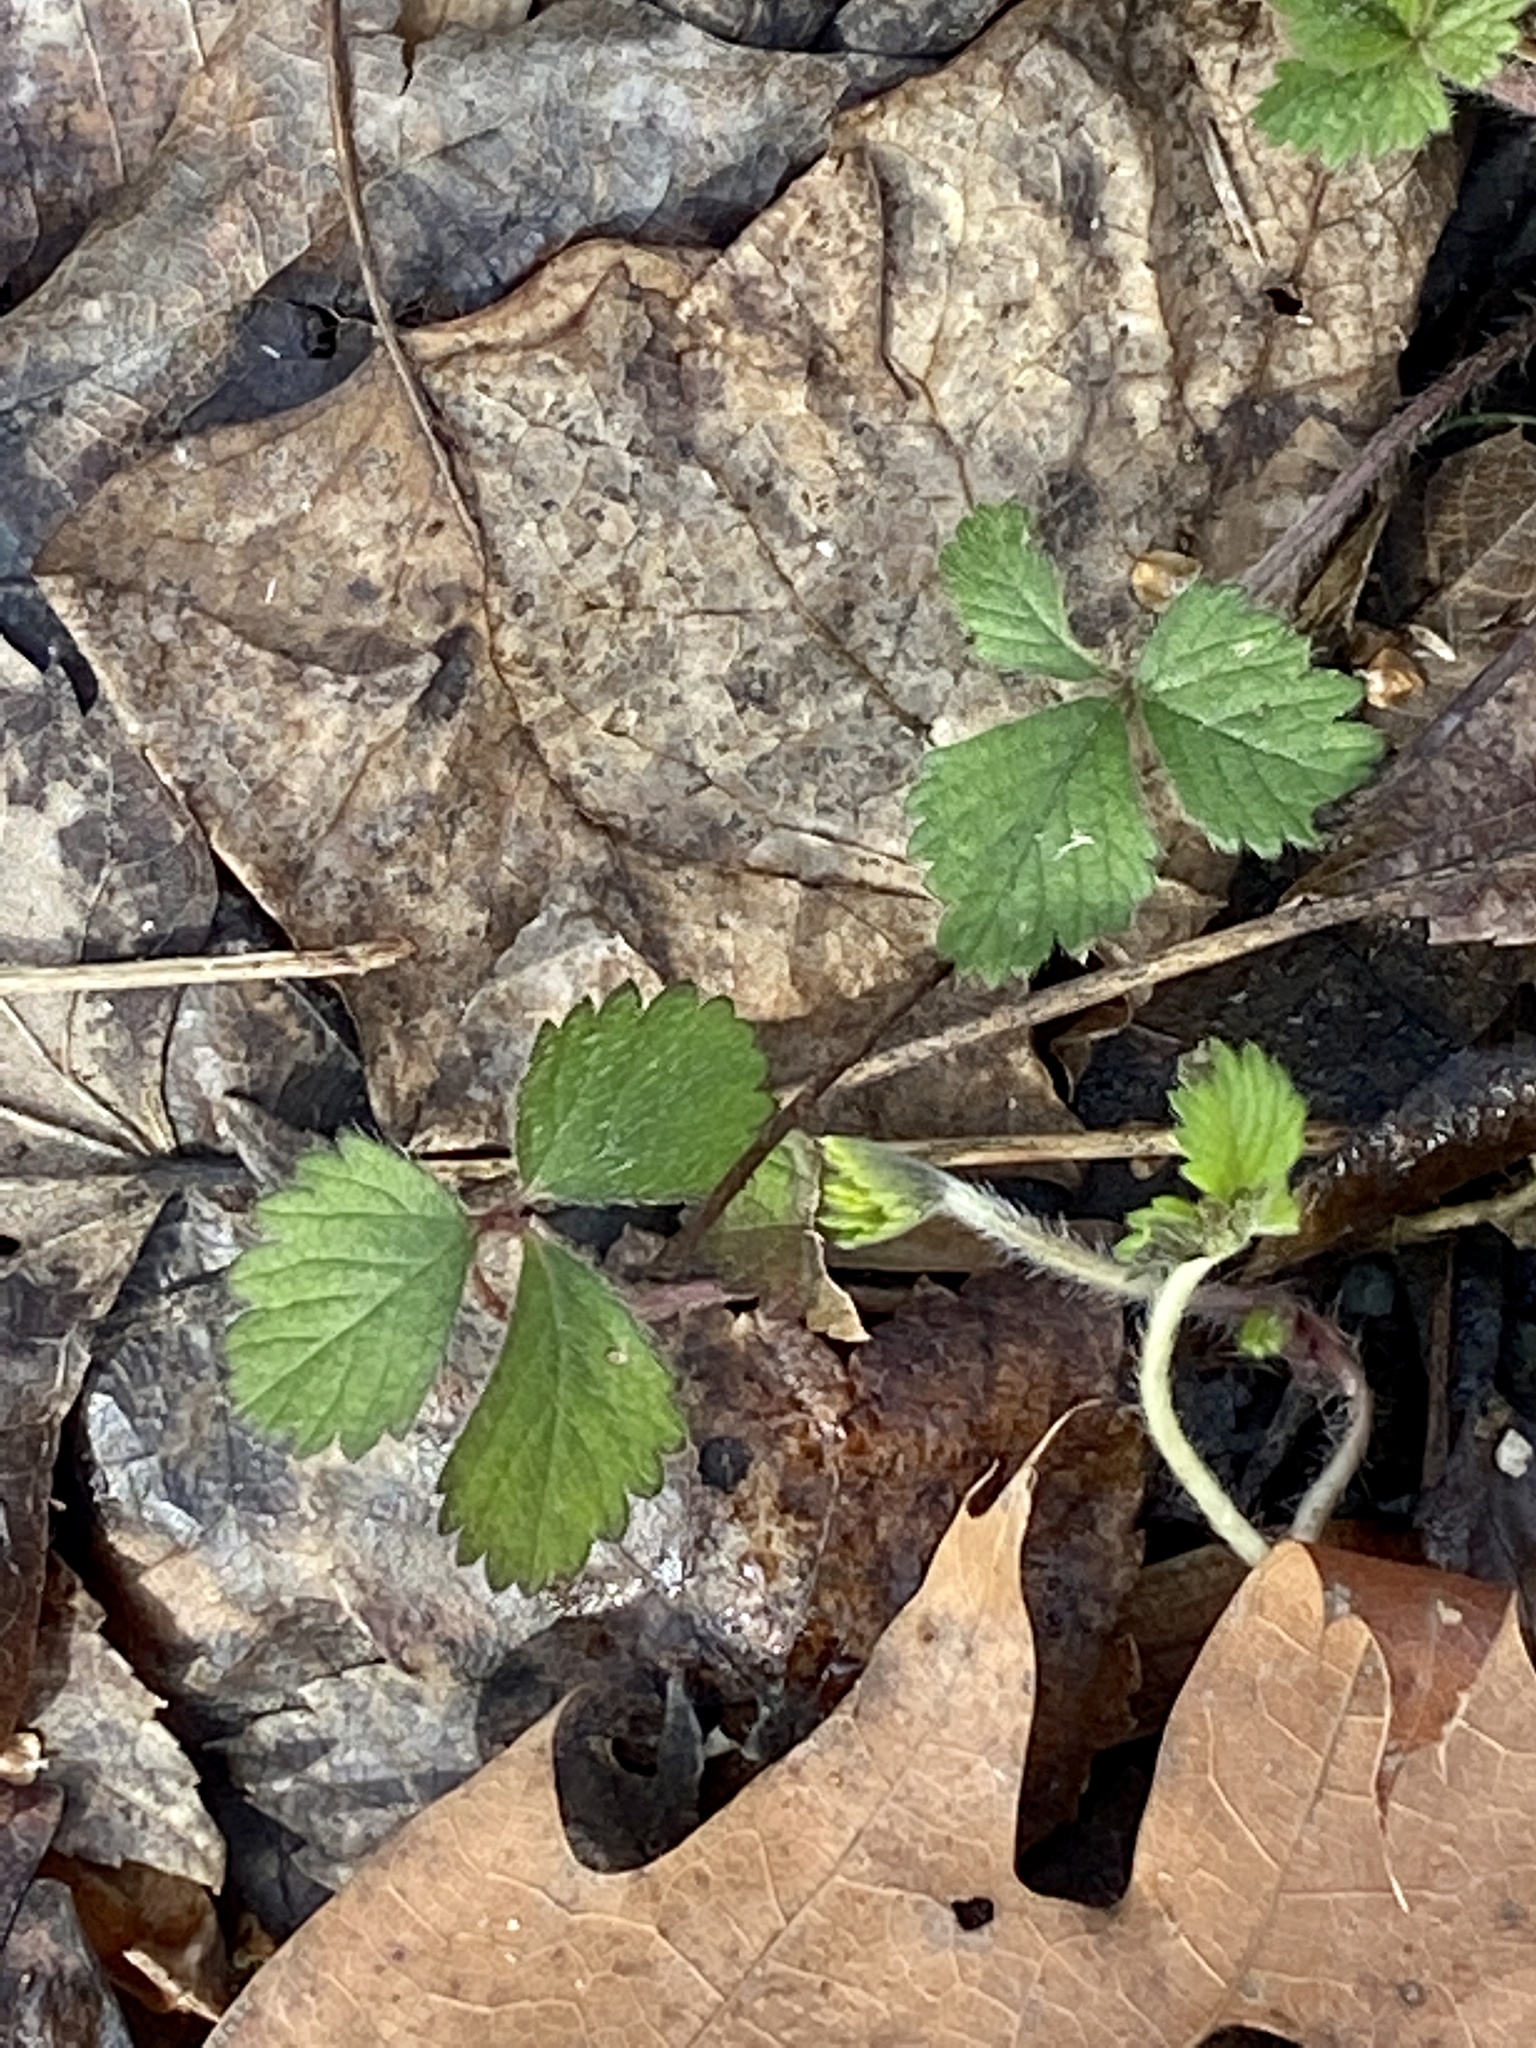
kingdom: Plantae
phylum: Tracheophyta
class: Magnoliopsida
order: Rosales
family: Rosaceae
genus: Potentilla
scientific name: Potentilla indica
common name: Yellow-flowered strawberry
